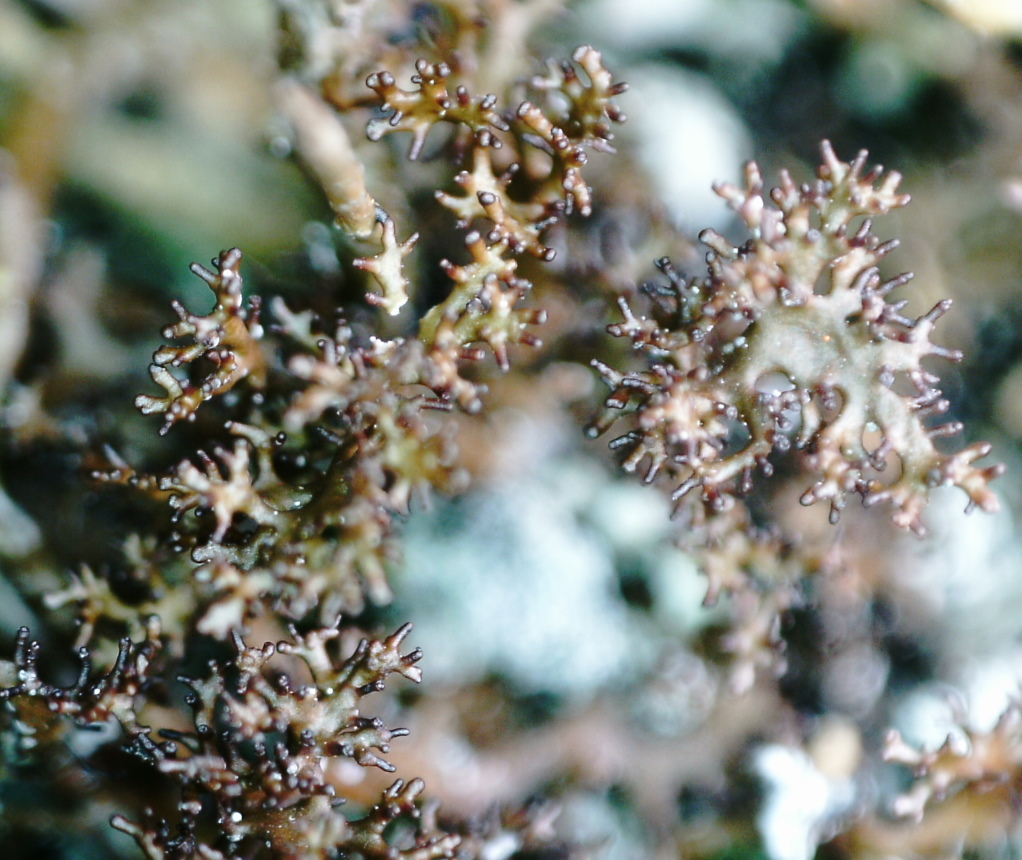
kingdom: Fungi
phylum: Ascomycota
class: Lecanoromycetes
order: Lecanorales
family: Parmeliaceae
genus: Cetraria
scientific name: Cetraria odontella
